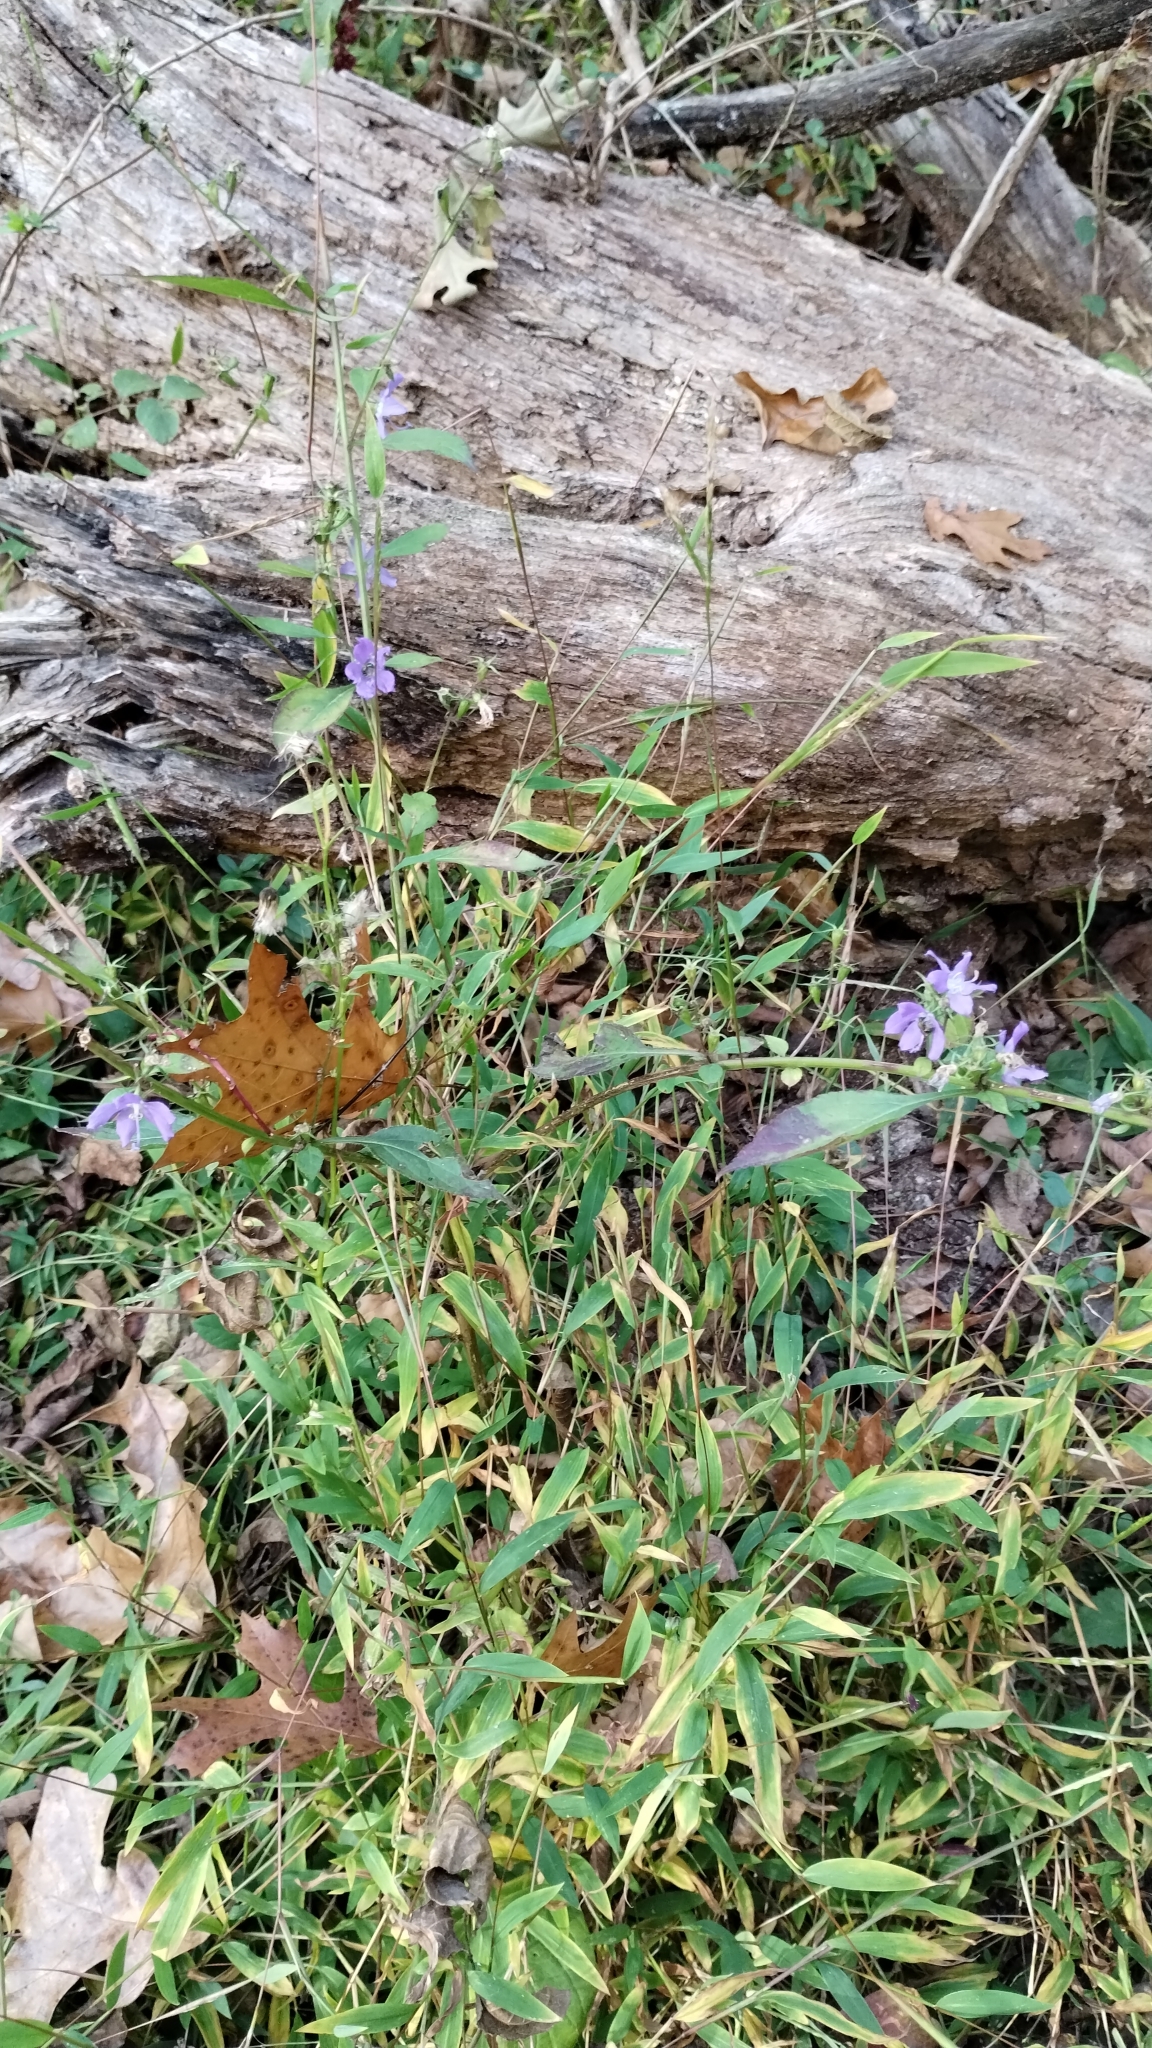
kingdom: Plantae
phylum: Tracheophyta
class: Magnoliopsida
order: Asterales
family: Campanulaceae
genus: Campanulastrum
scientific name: Campanulastrum americanum
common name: American bellflower
